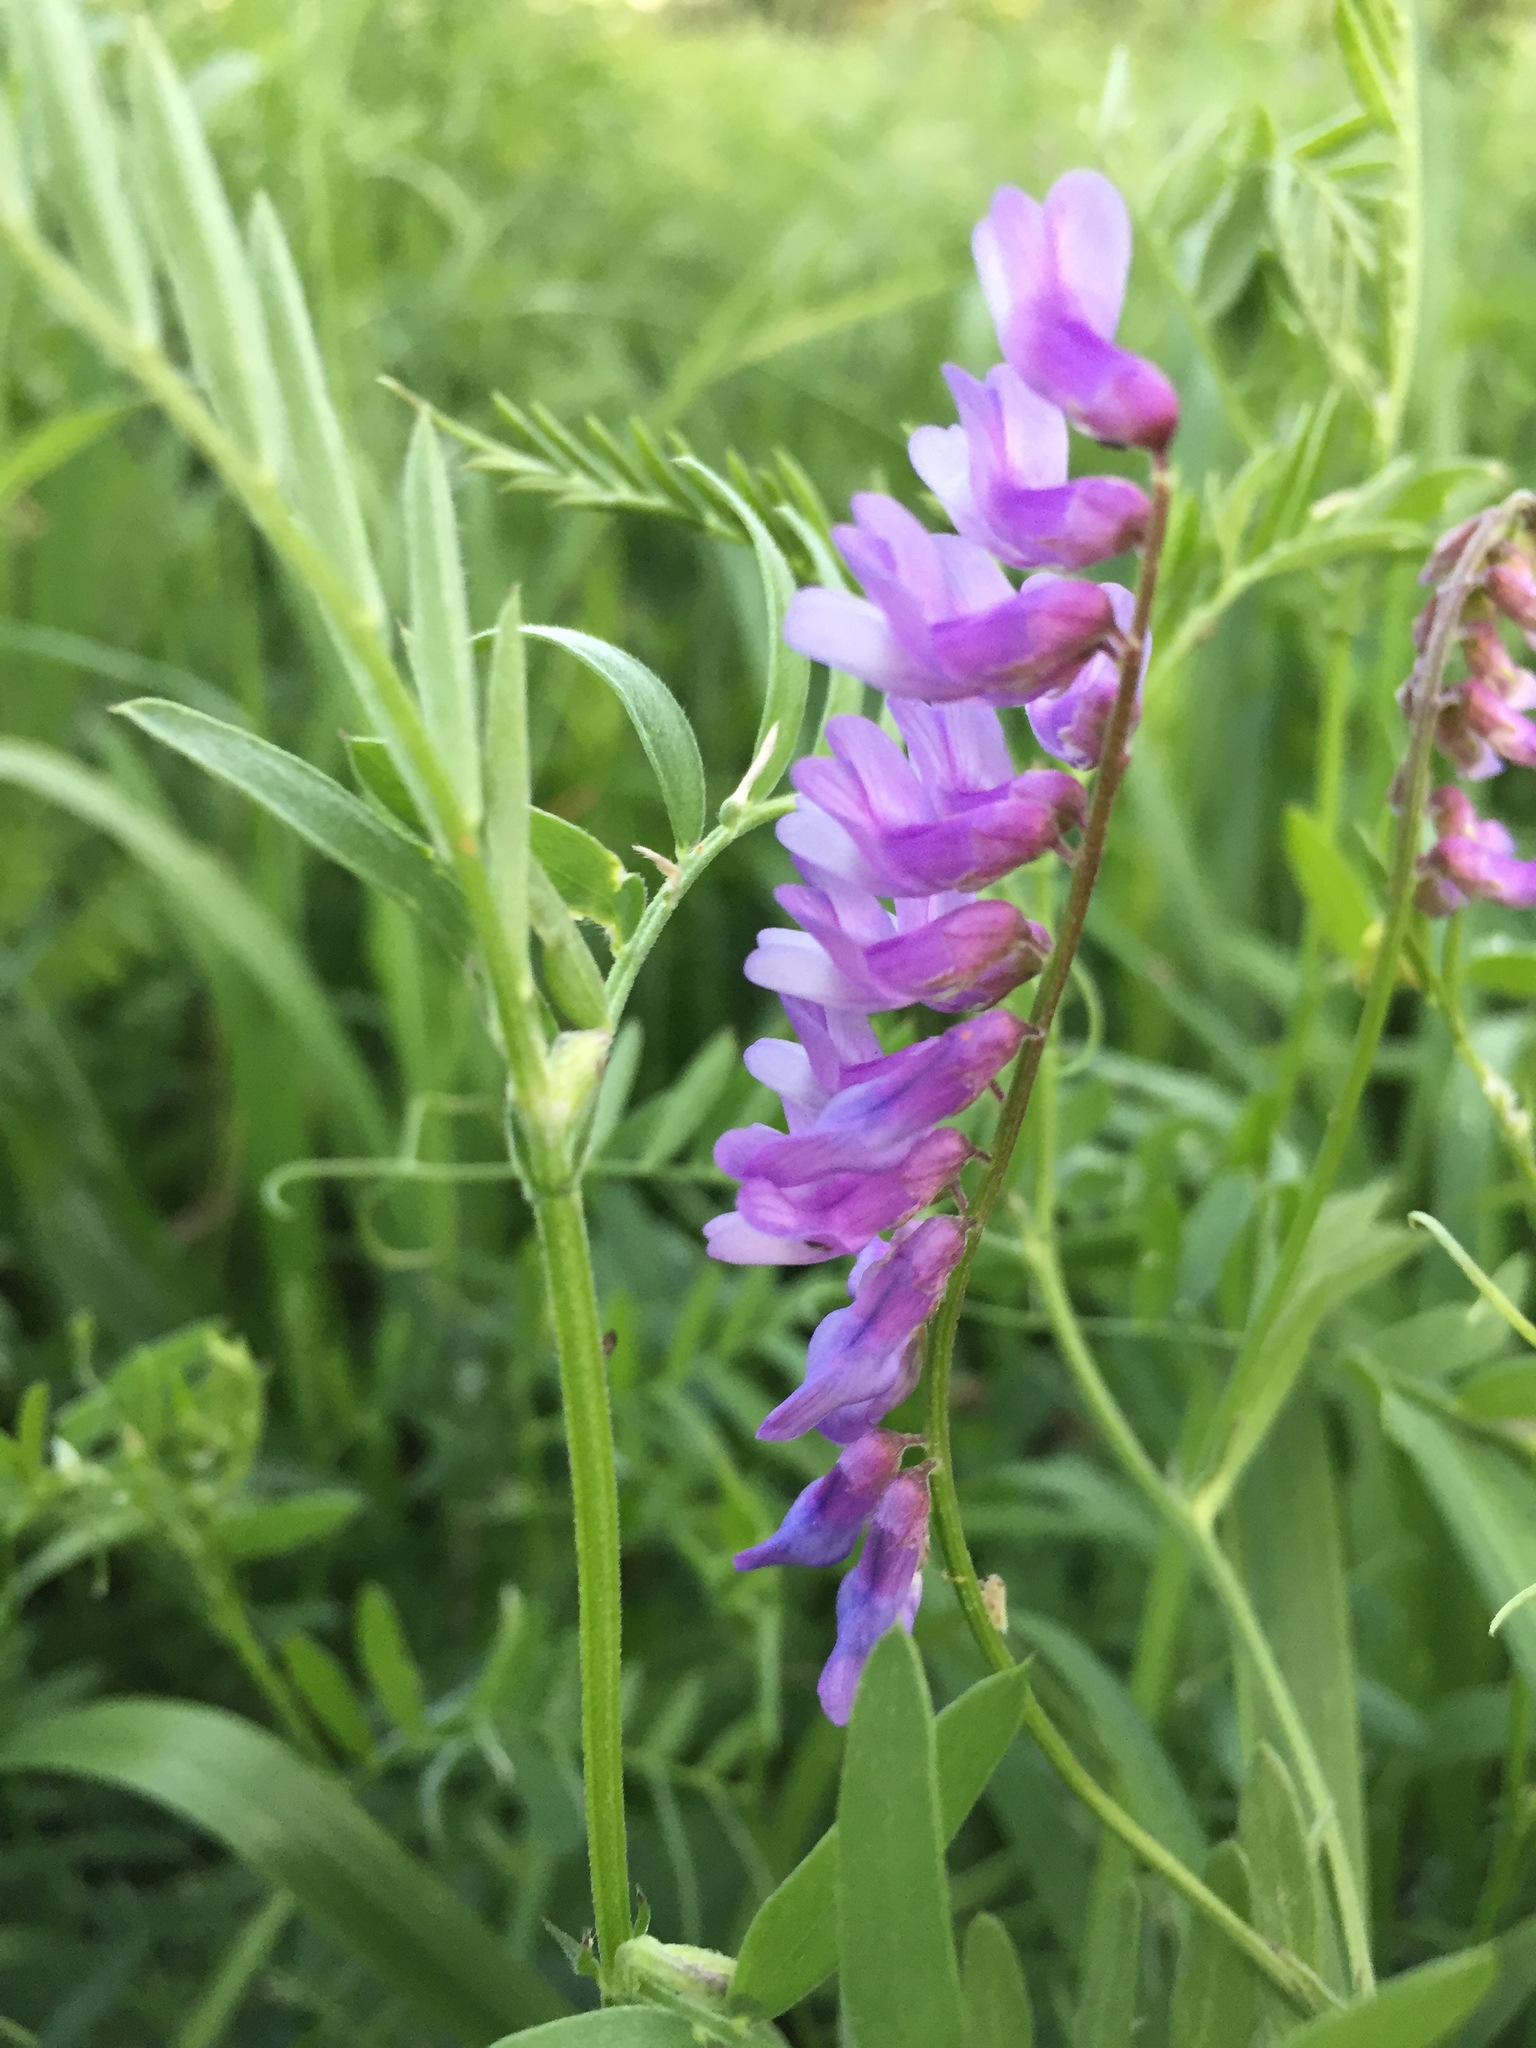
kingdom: Plantae
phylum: Tracheophyta
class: Magnoliopsida
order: Fabales
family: Fabaceae
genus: Vicia
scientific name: Vicia cracca
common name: Bird vetch
